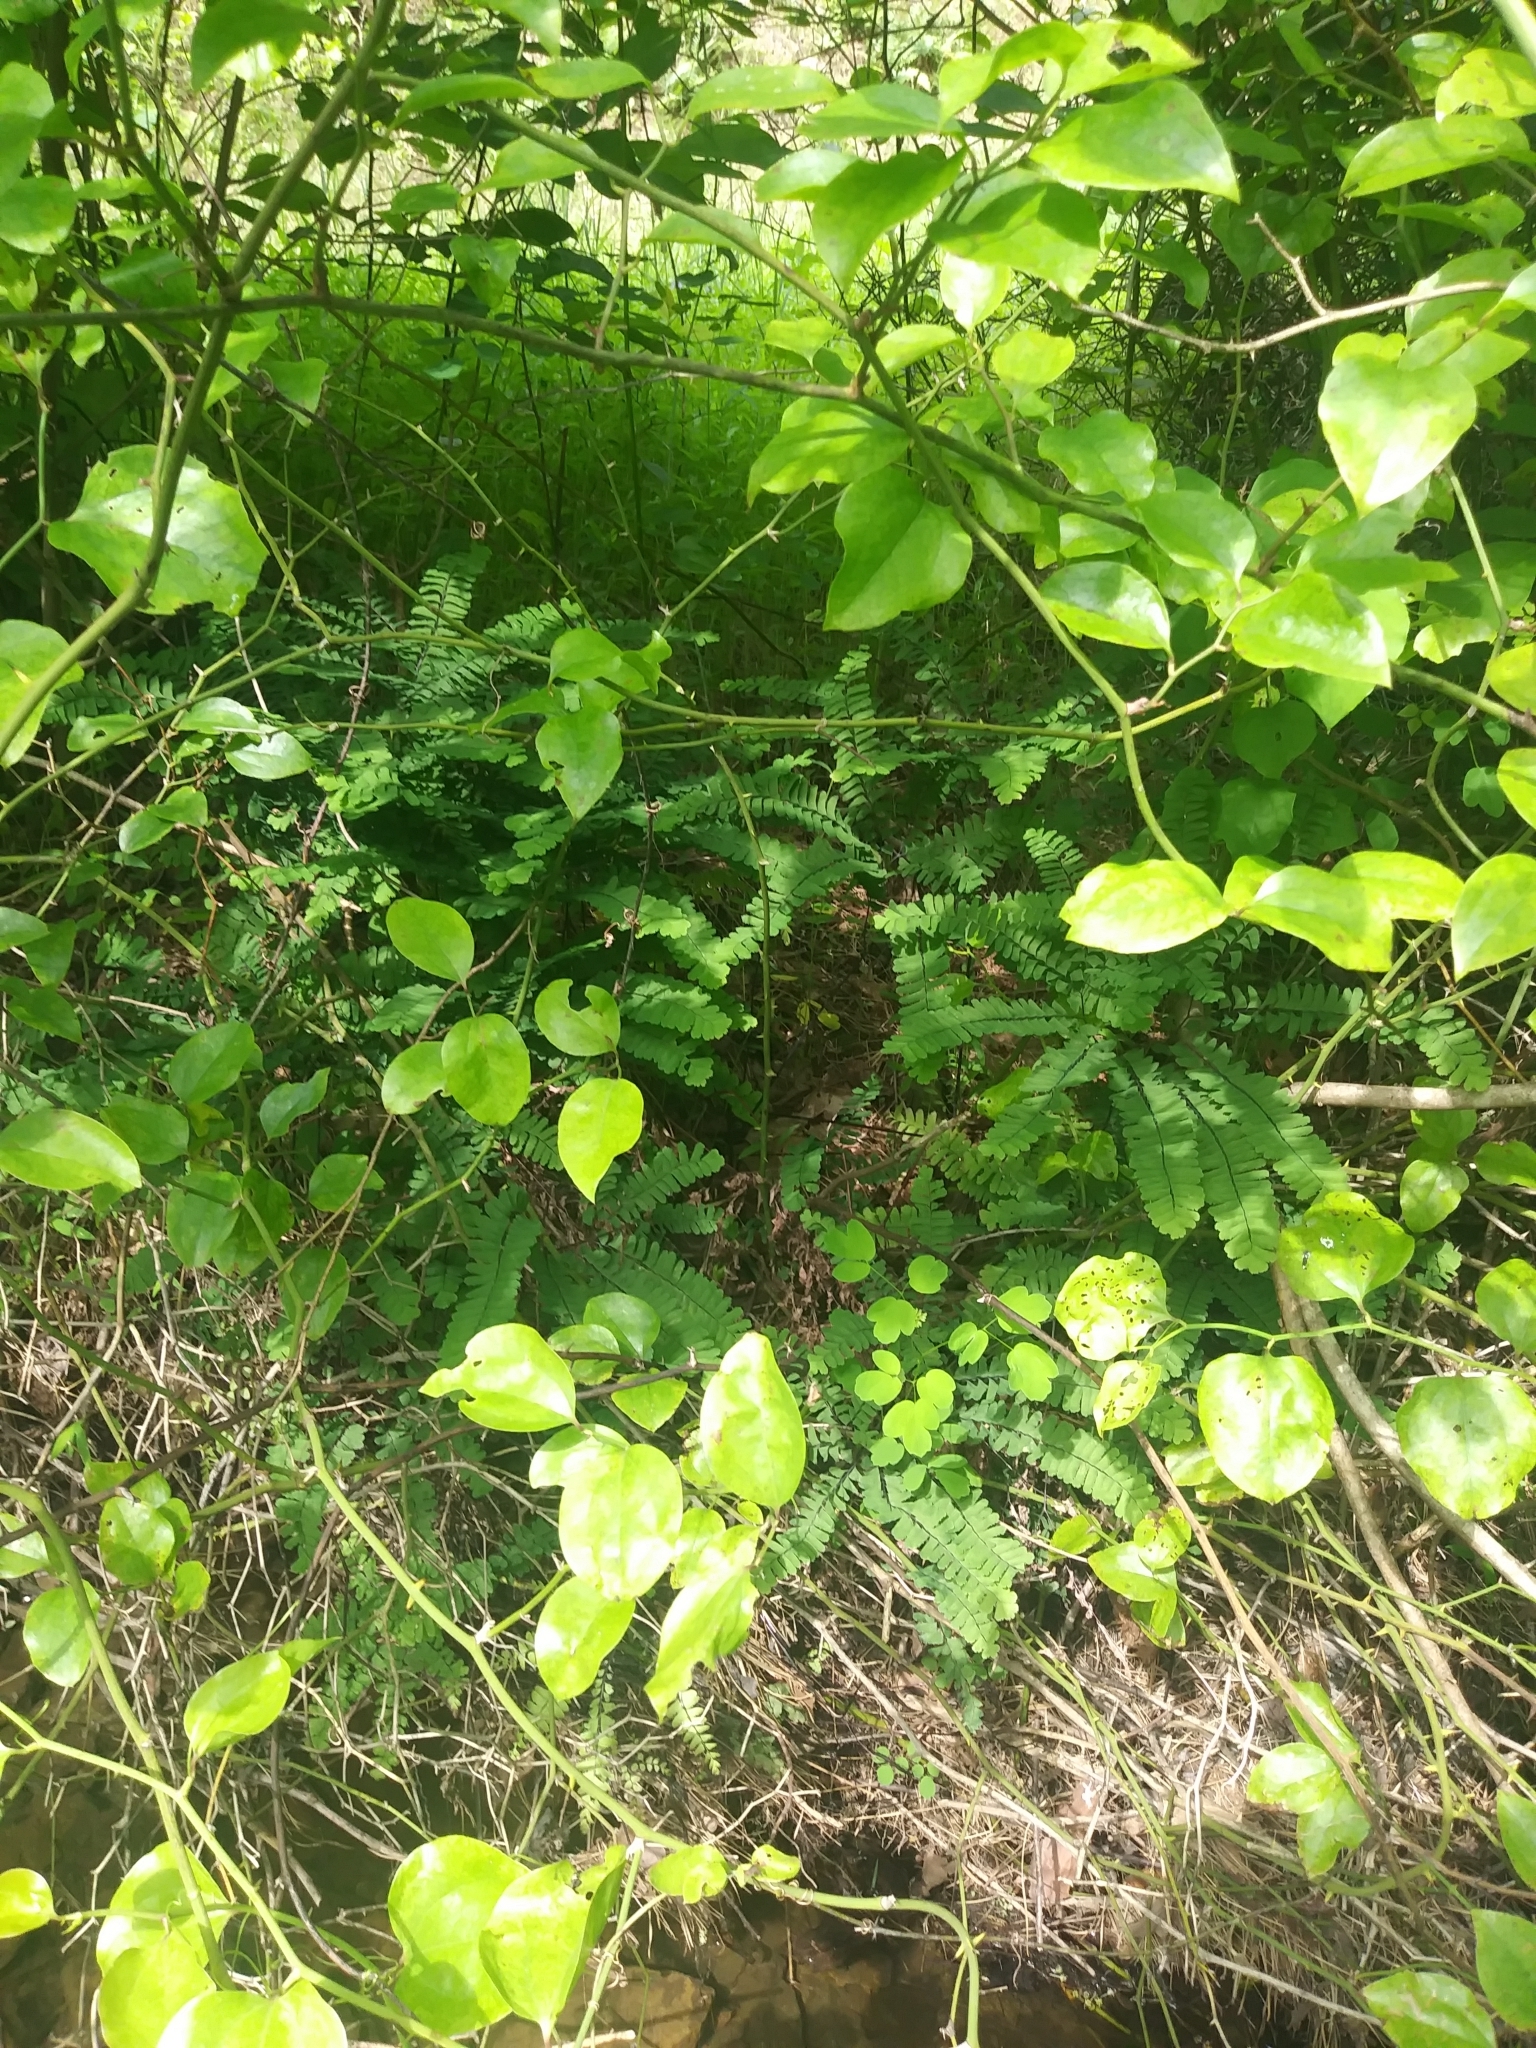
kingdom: Plantae
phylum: Tracheophyta
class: Polypodiopsida
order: Polypodiales
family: Pteridaceae
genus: Adiantum
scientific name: Adiantum pedatum
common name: Five-finger fern
